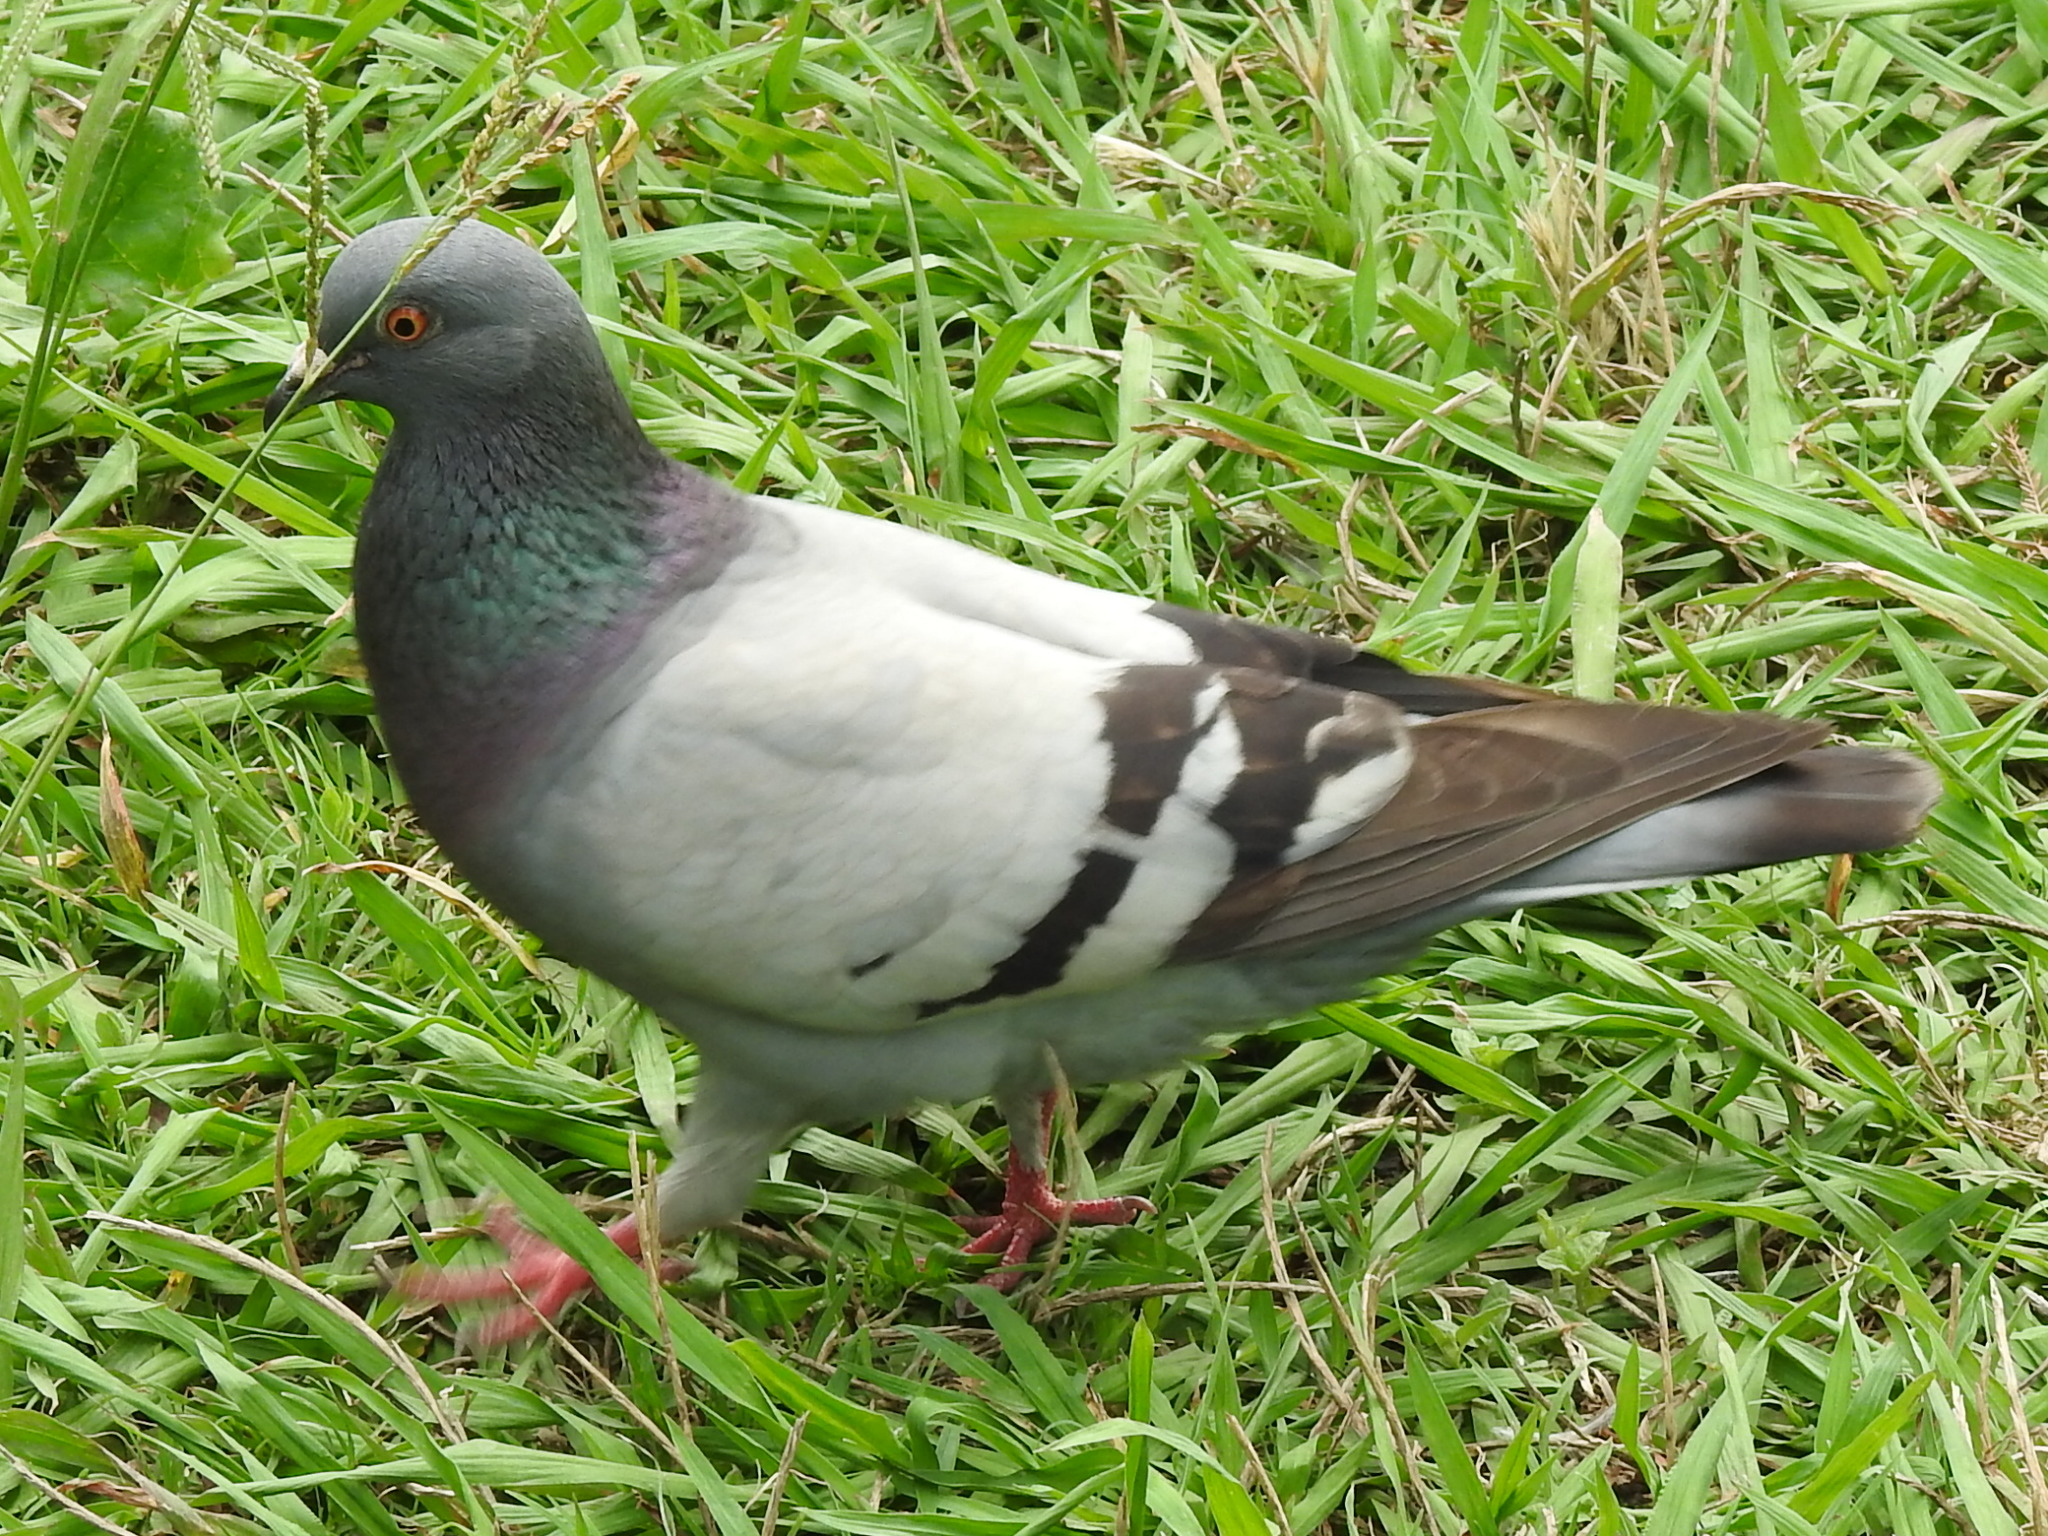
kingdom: Animalia
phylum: Chordata
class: Aves
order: Columbiformes
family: Columbidae
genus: Columba
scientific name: Columba livia
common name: Rock pigeon
